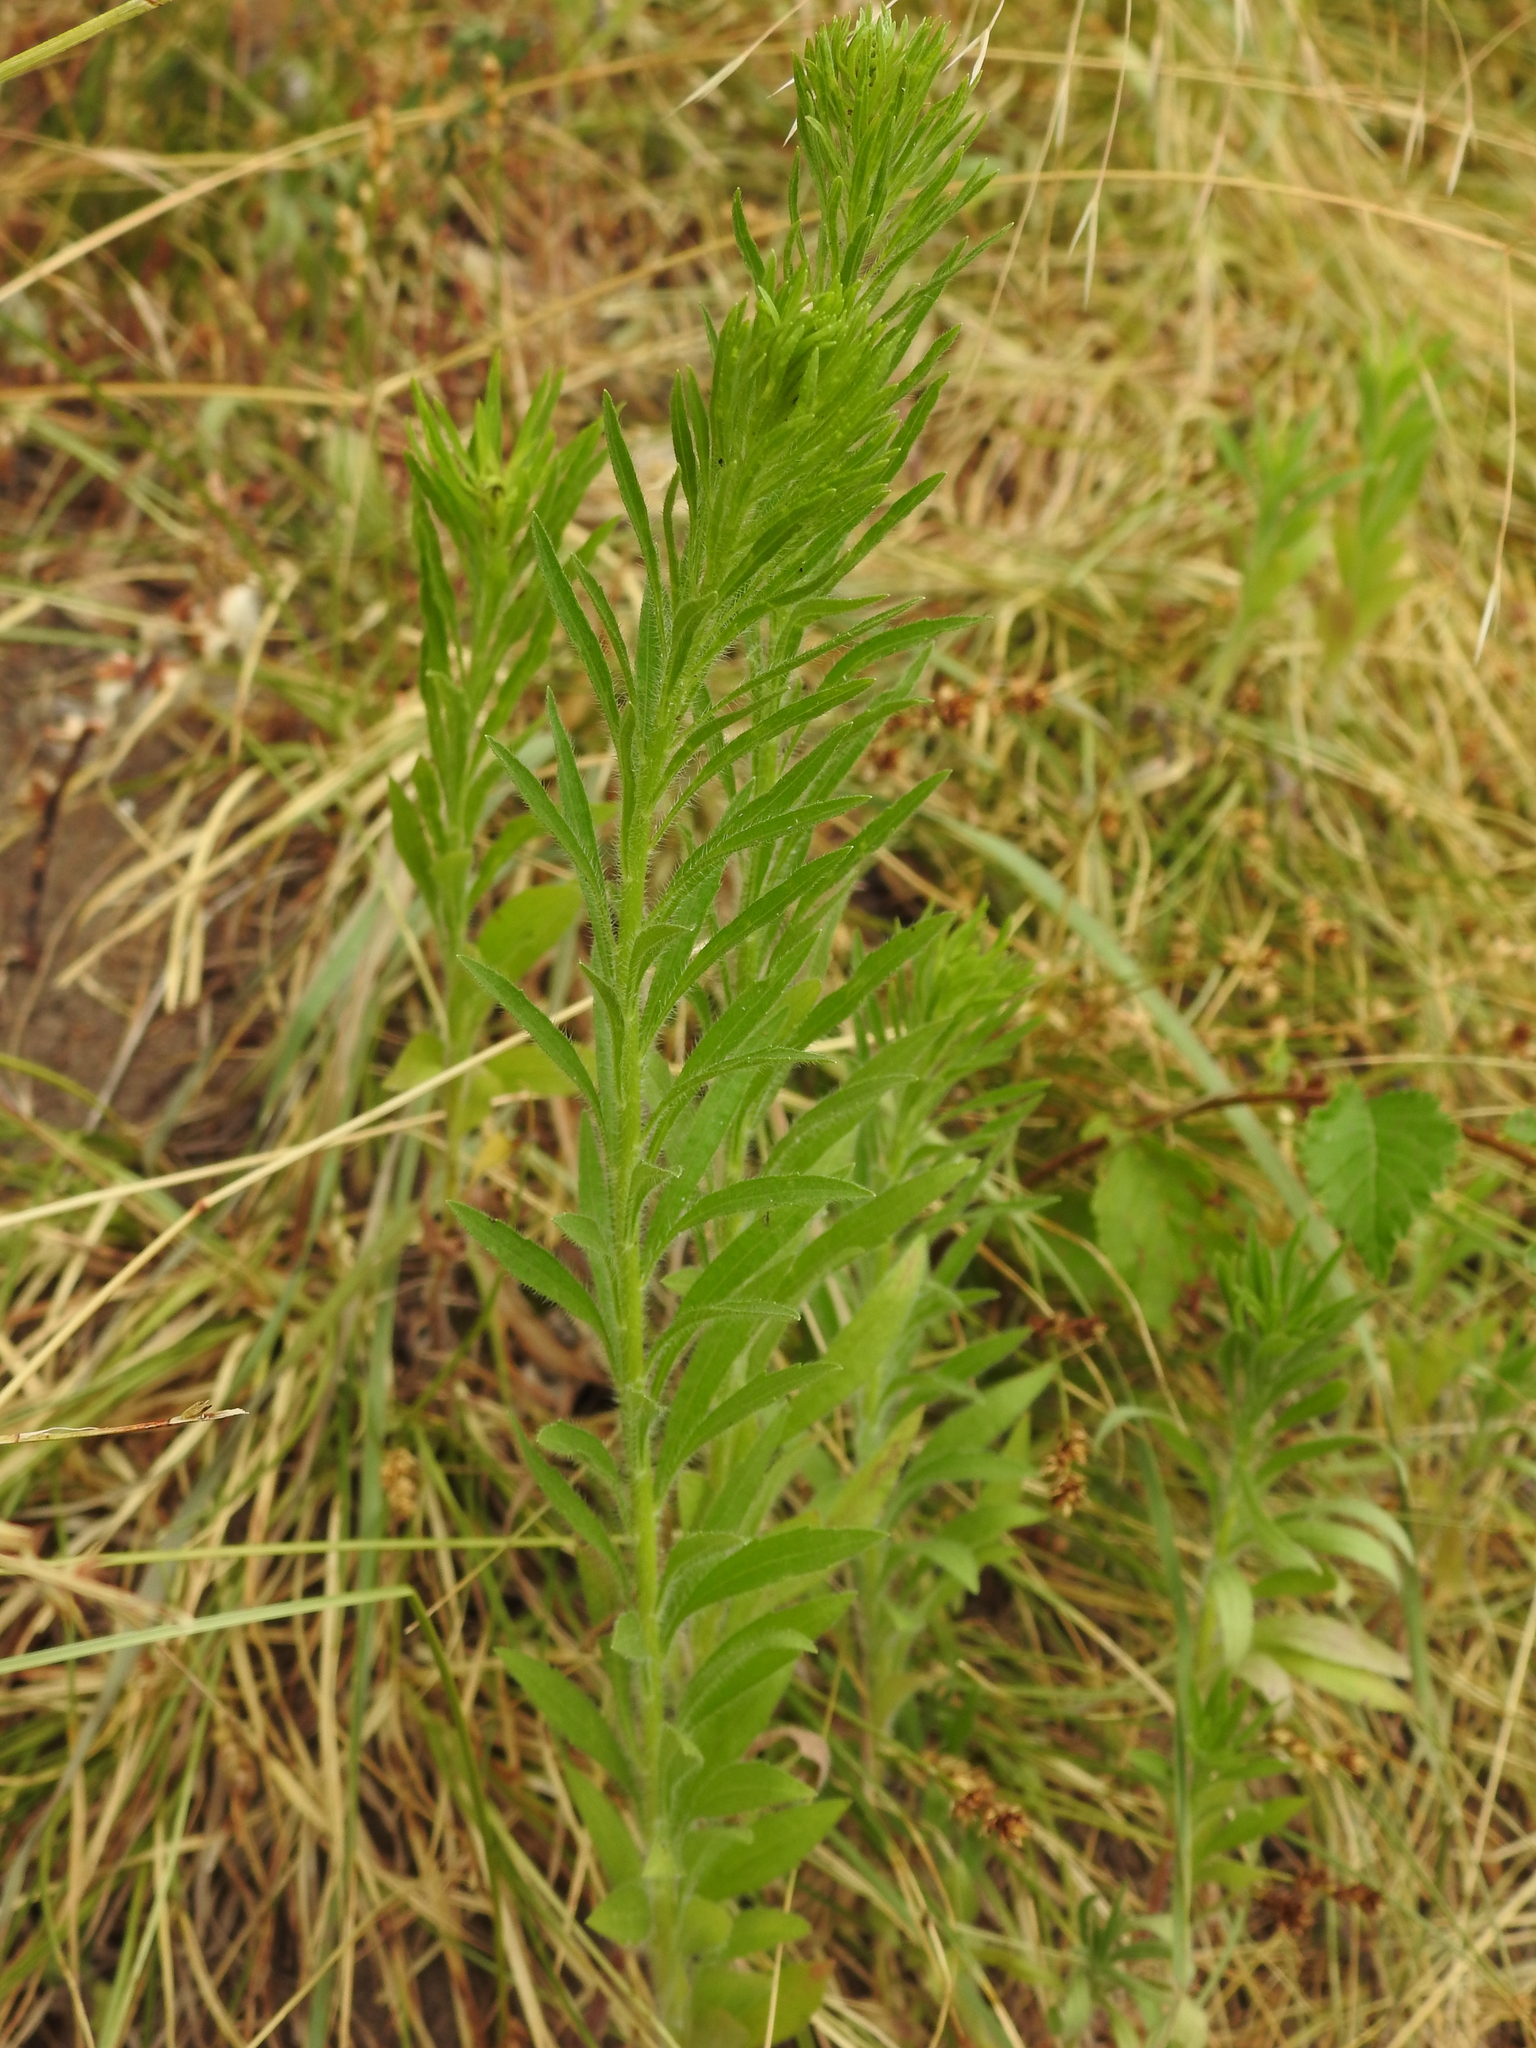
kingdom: Plantae
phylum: Tracheophyta
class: Magnoliopsida
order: Asterales
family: Asteraceae
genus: Erigeron
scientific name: Erigeron canadensis
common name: Canadian fleabane
